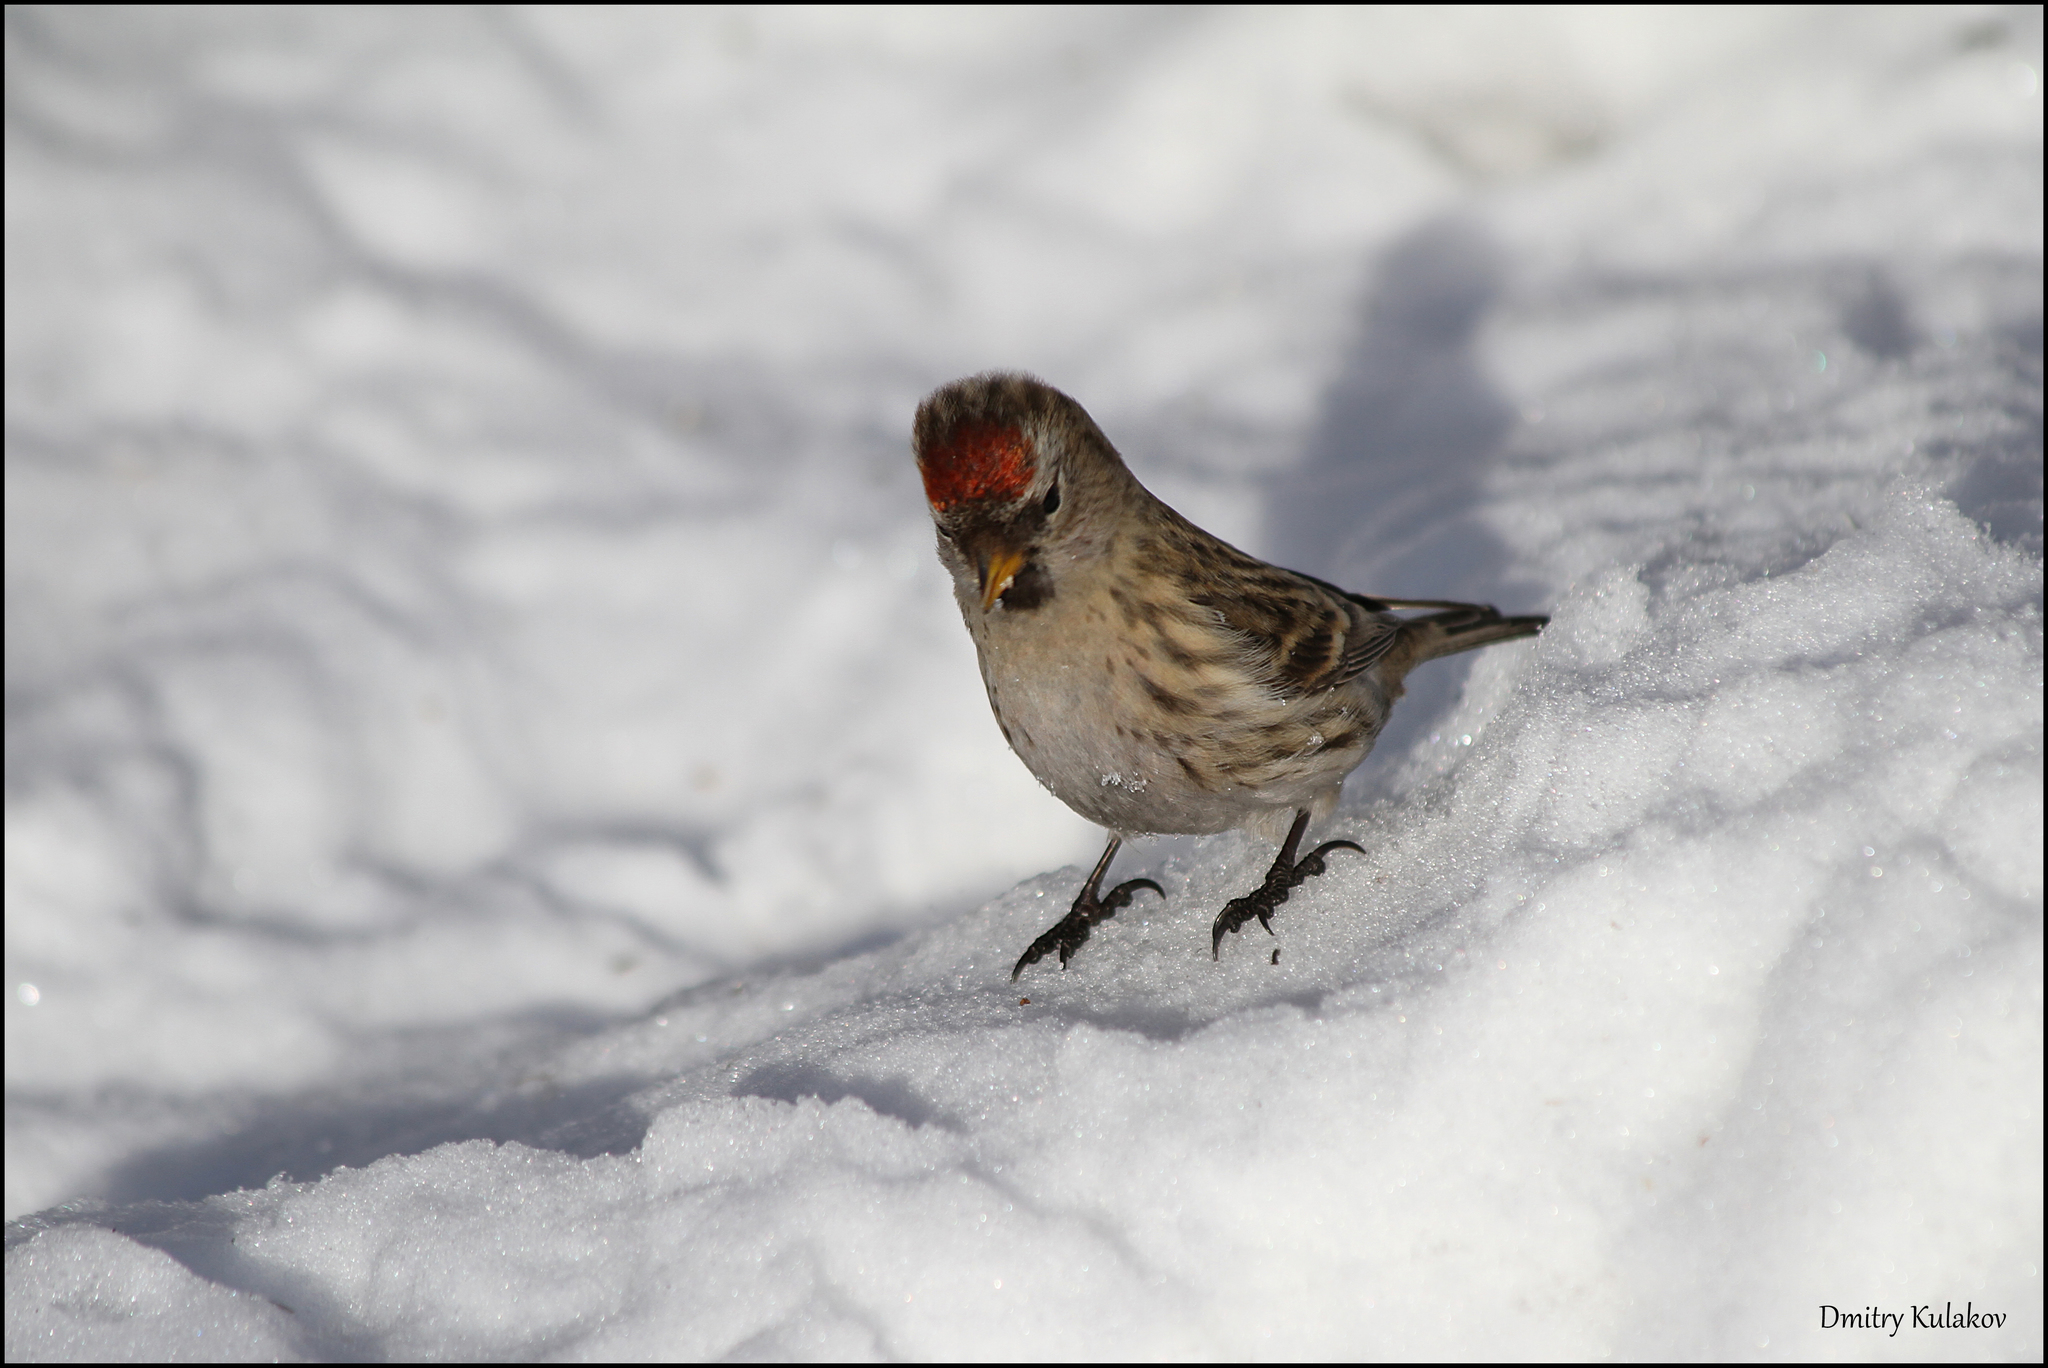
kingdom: Animalia
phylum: Chordata
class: Aves
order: Passeriformes
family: Fringillidae
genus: Acanthis
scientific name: Acanthis flammea
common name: Common redpoll
